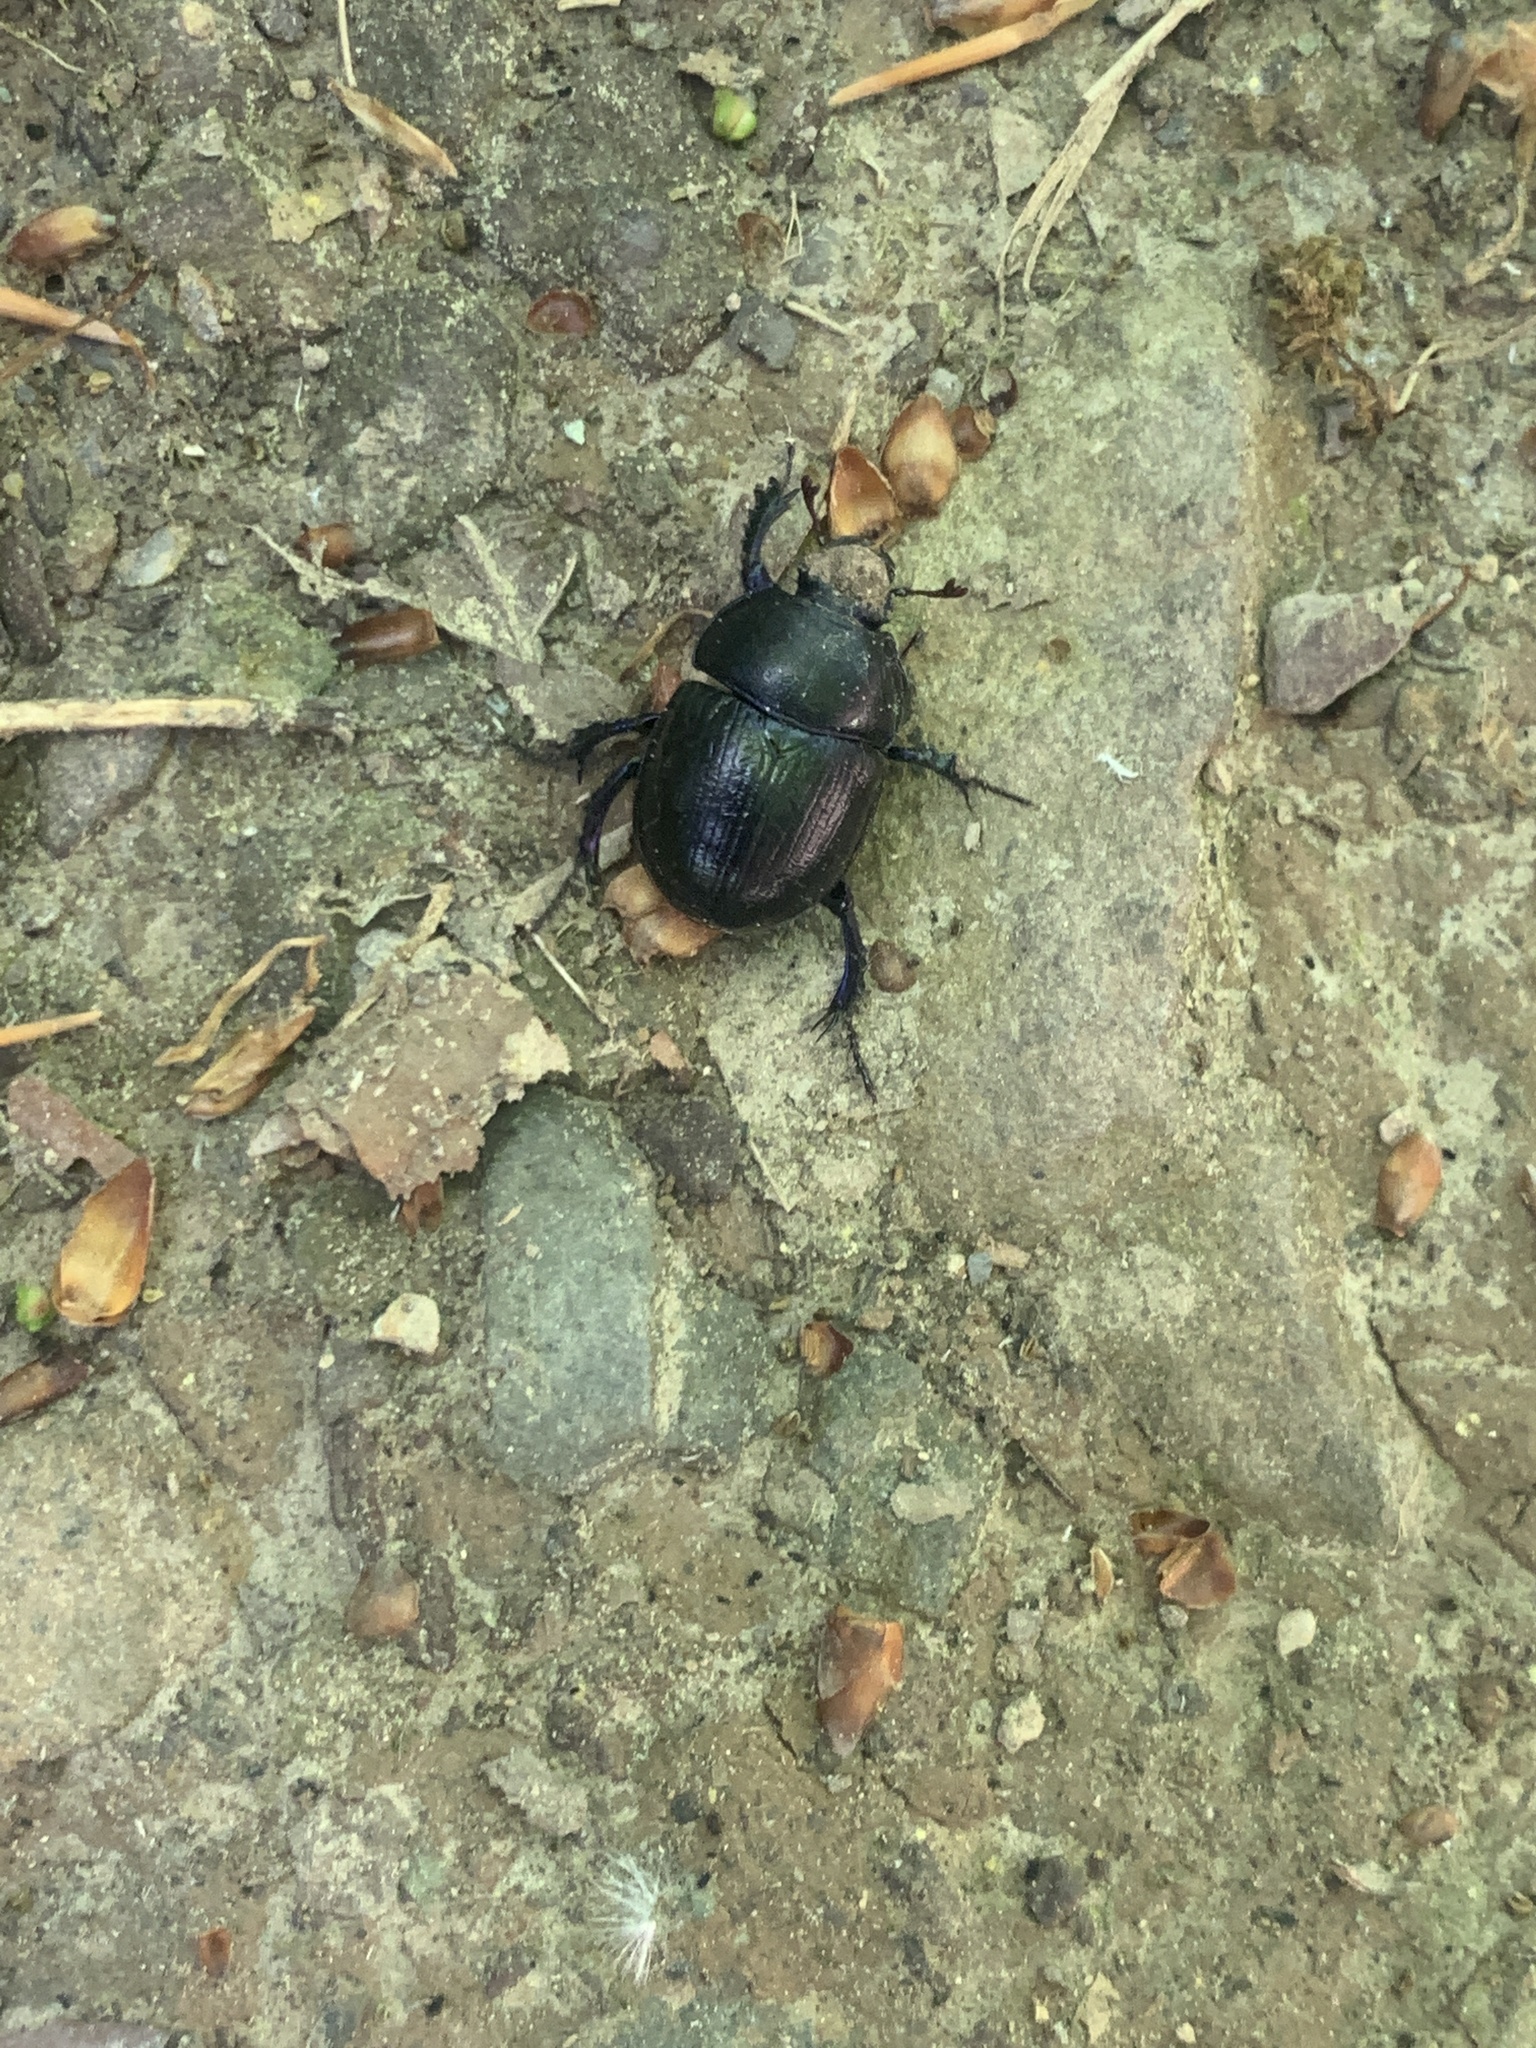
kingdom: Animalia
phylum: Arthropoda
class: Insecta
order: Coleoptera
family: Geotrupidae
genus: Anoplotrupes
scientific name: Anoplotrupes stercorosus
